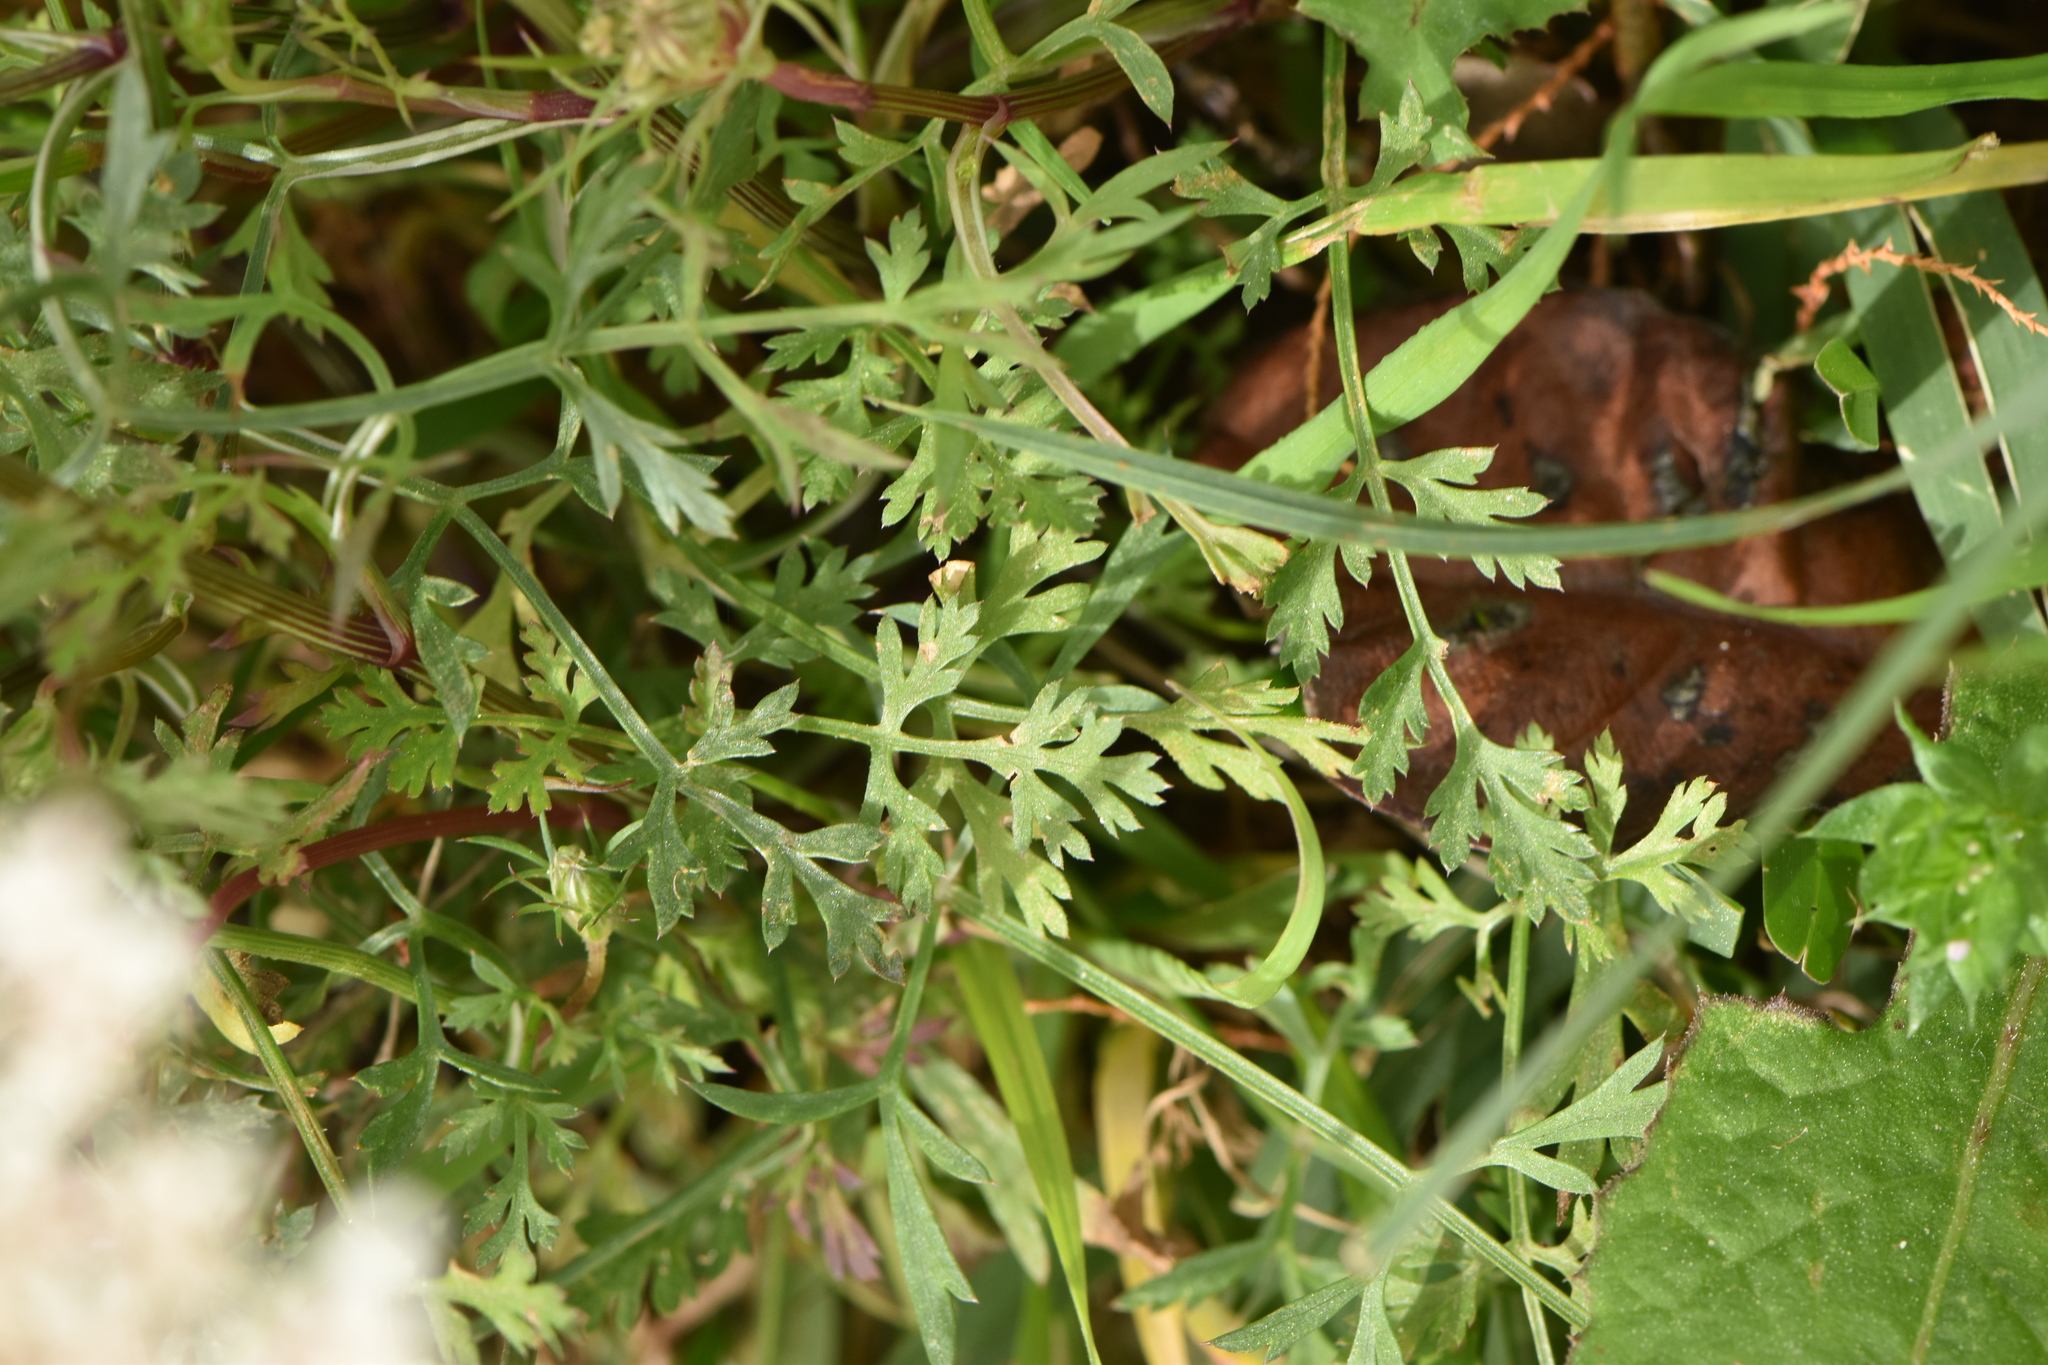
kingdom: Plantae
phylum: Tracheophyta
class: Magnoliopsida
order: Apiales
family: Apiaceae
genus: Daucus
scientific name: Daucus carota
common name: Wild carrot
